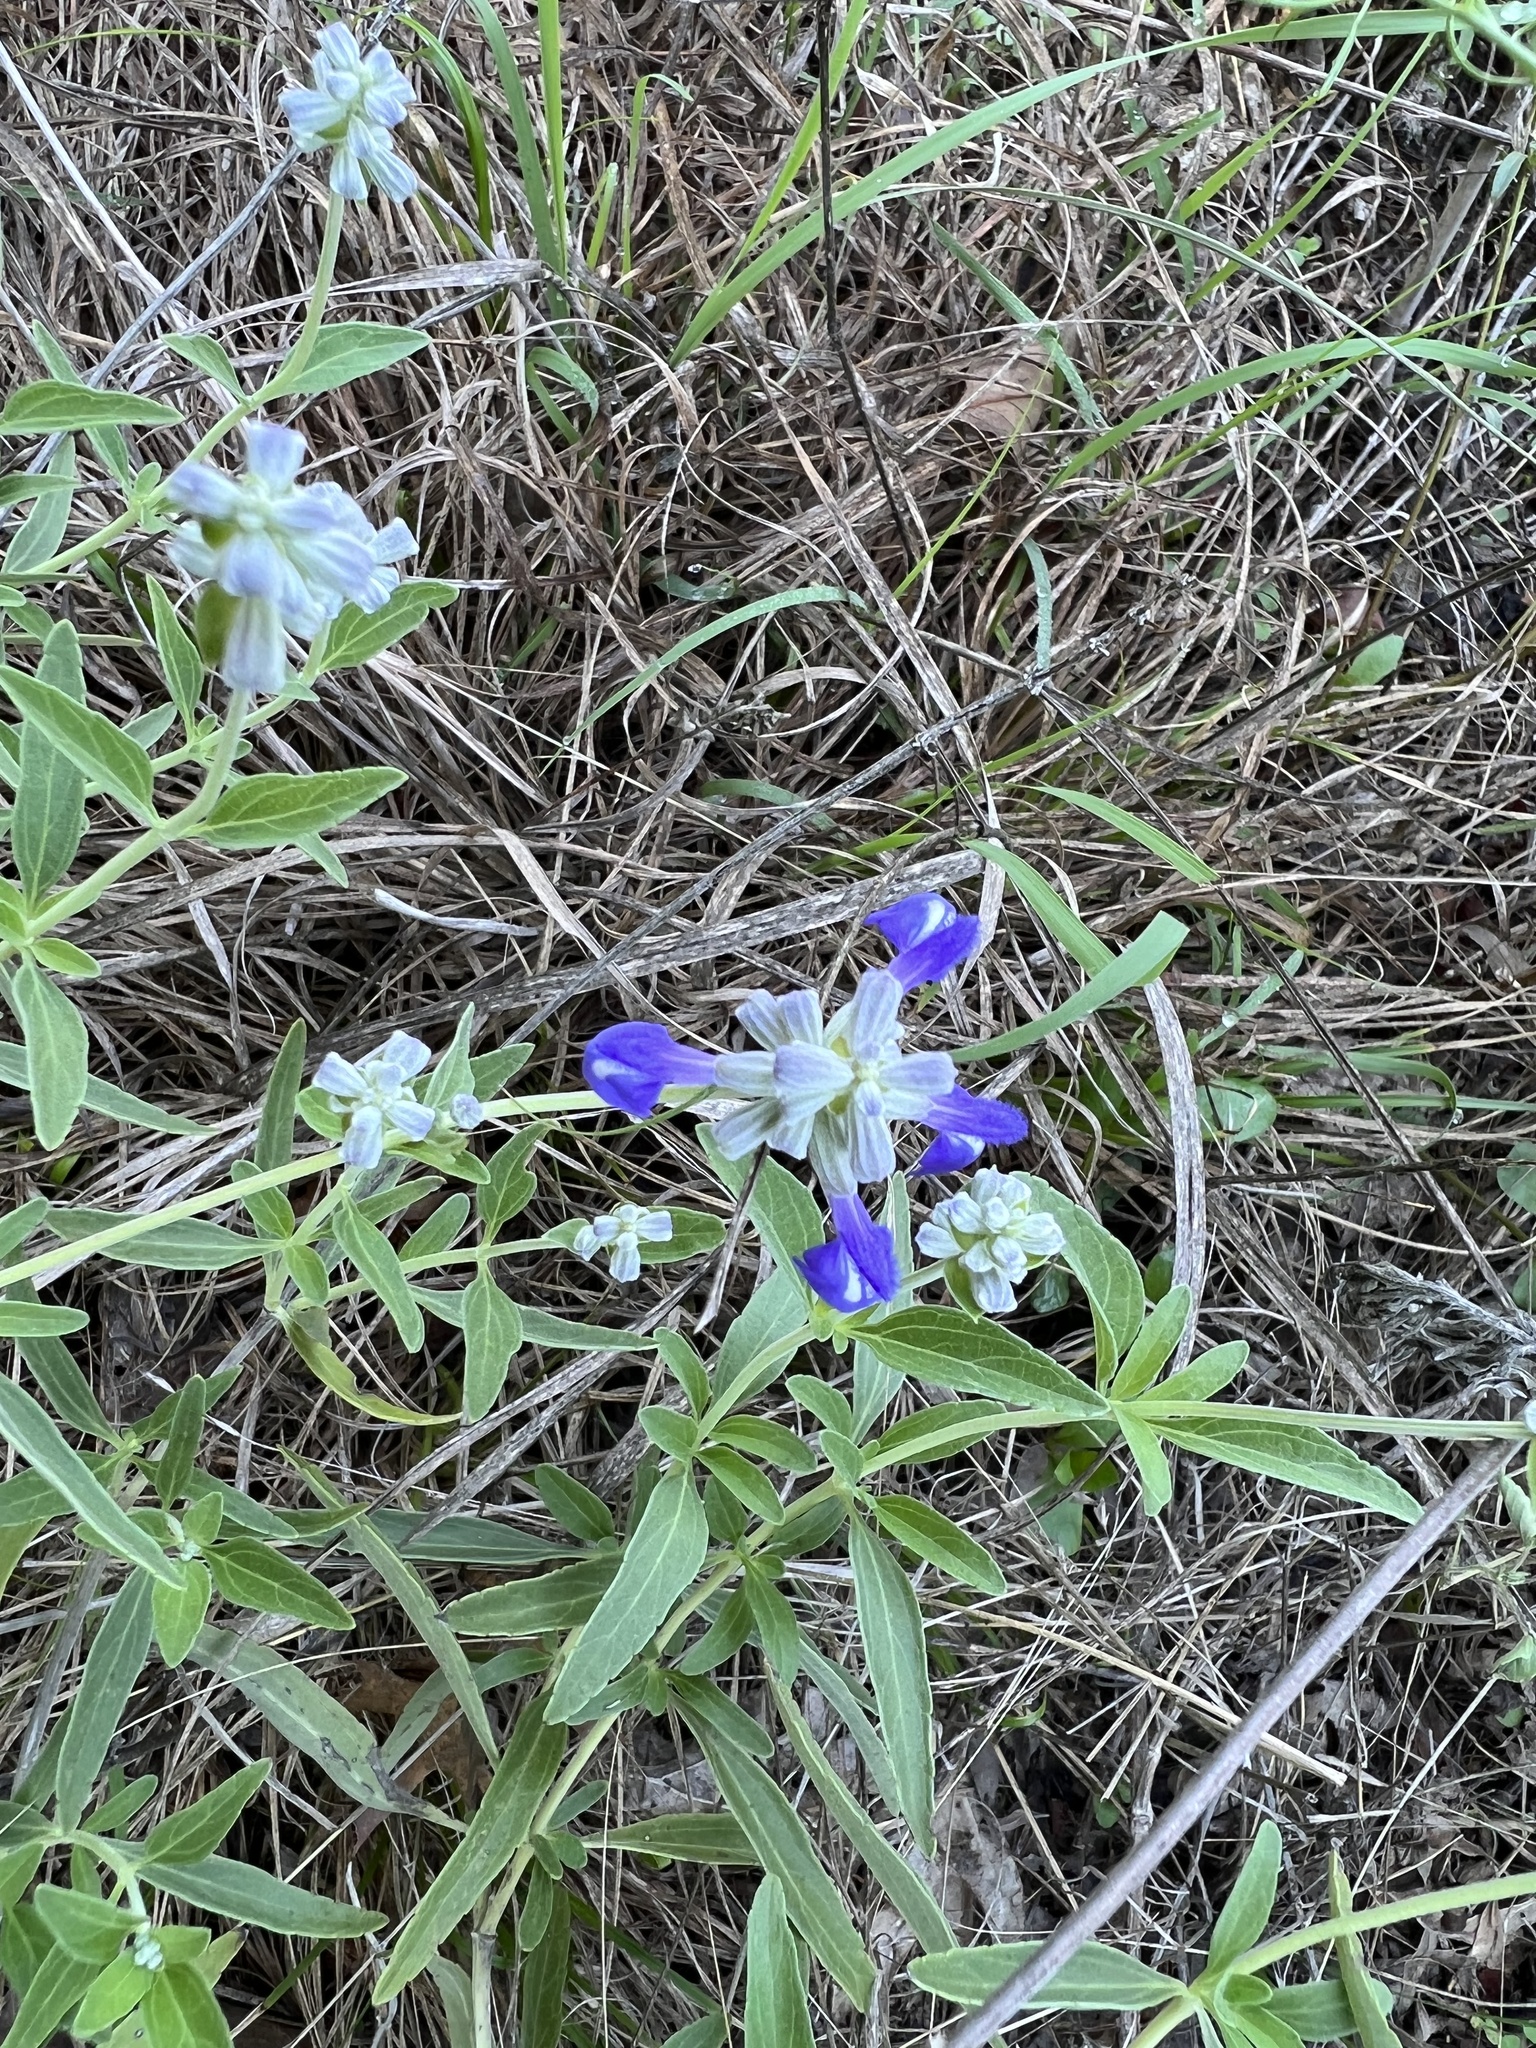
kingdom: Plantae
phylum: Tracheophyta
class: Magnoliopsida
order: Lamiales
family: Lamiaceae
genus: Salvia
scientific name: Salvia farinacea
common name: Mealy sage
